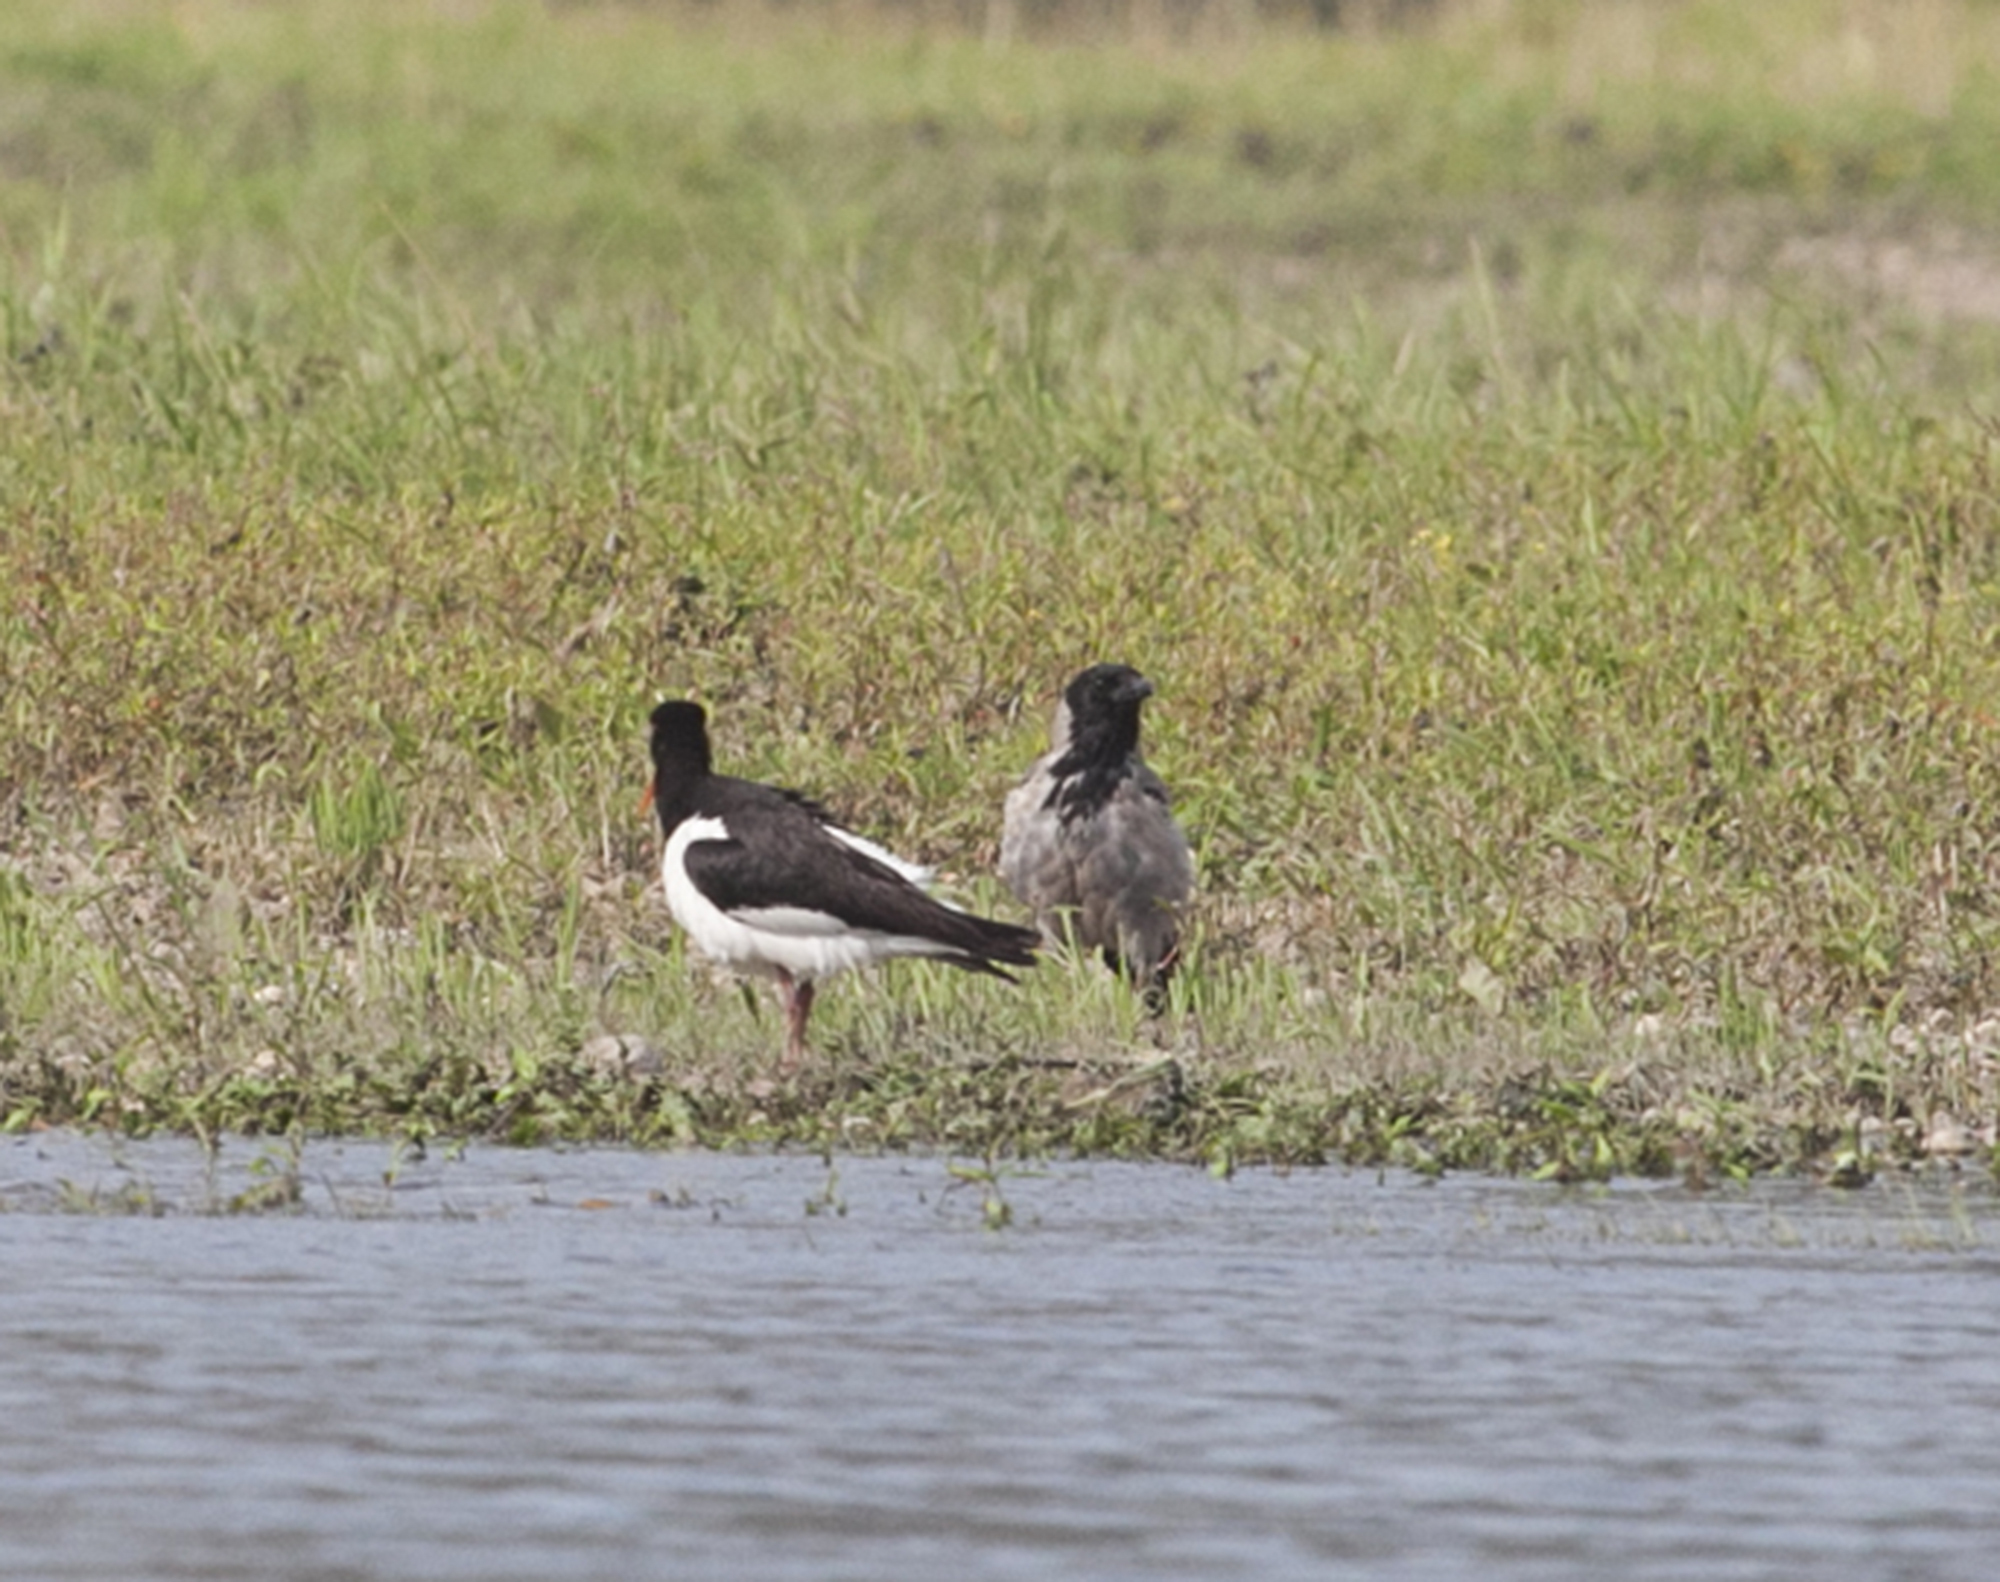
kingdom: Animalia
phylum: Chordata
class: Aves
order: Passeriformes
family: Corvidae
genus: Corvus
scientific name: Corvus cornix
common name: Hooded crow
